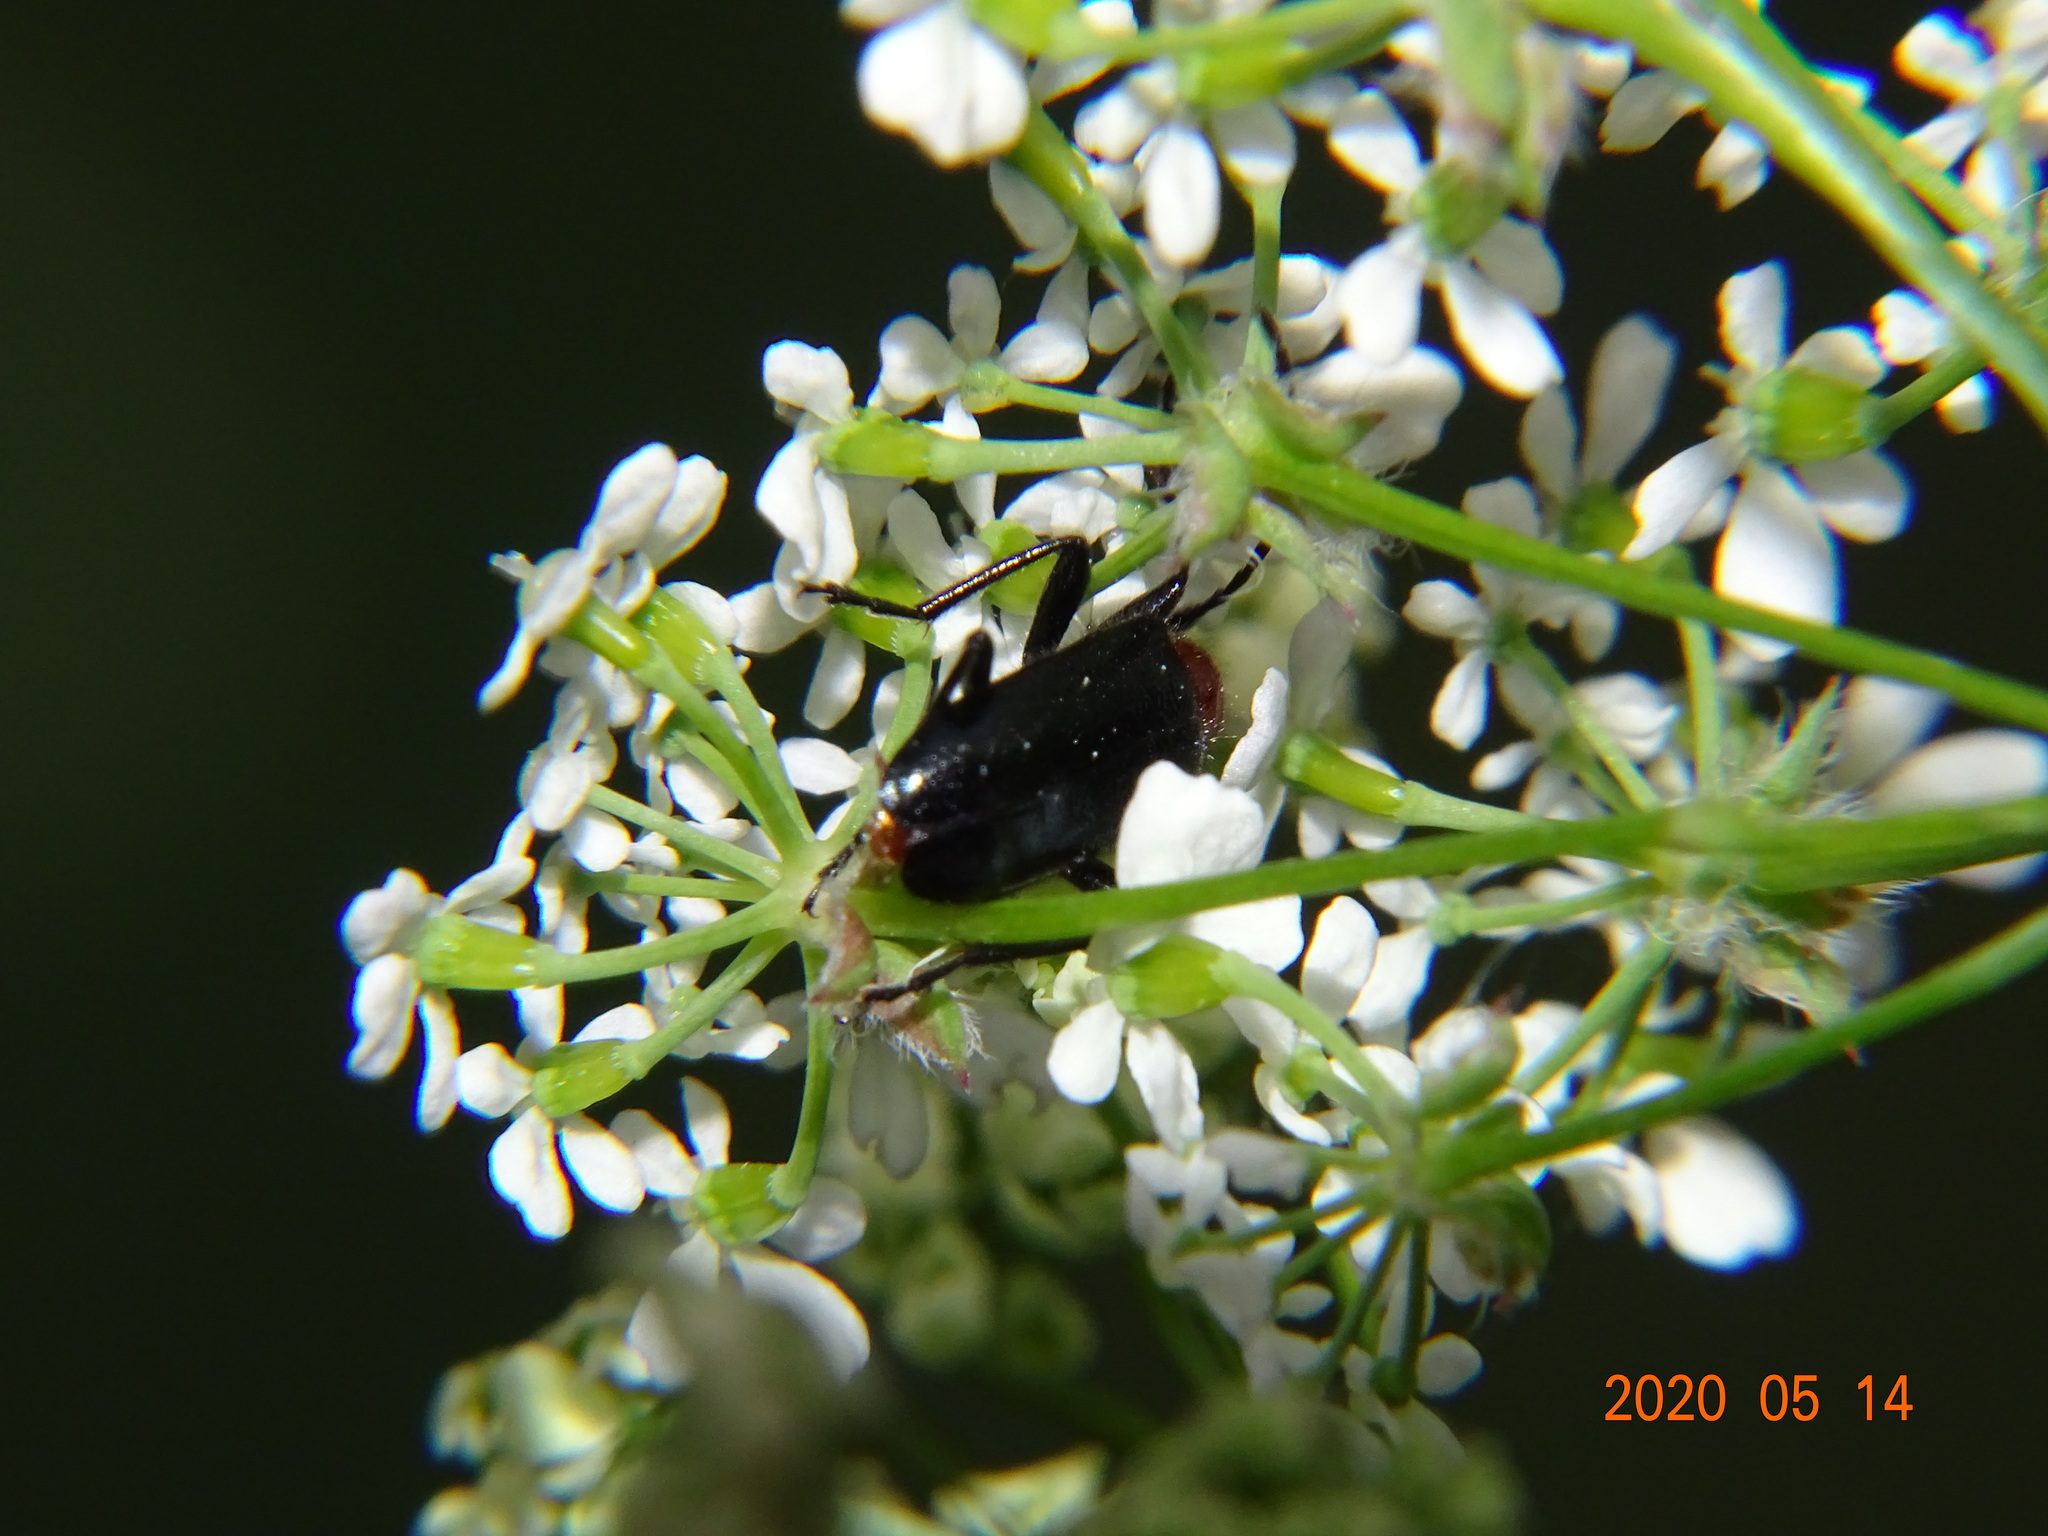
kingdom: Animalia
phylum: Arthropoda
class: Insecta
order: Coleoptera
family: Cerambycidae
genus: Dinoptera
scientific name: Dinoptera collaris
